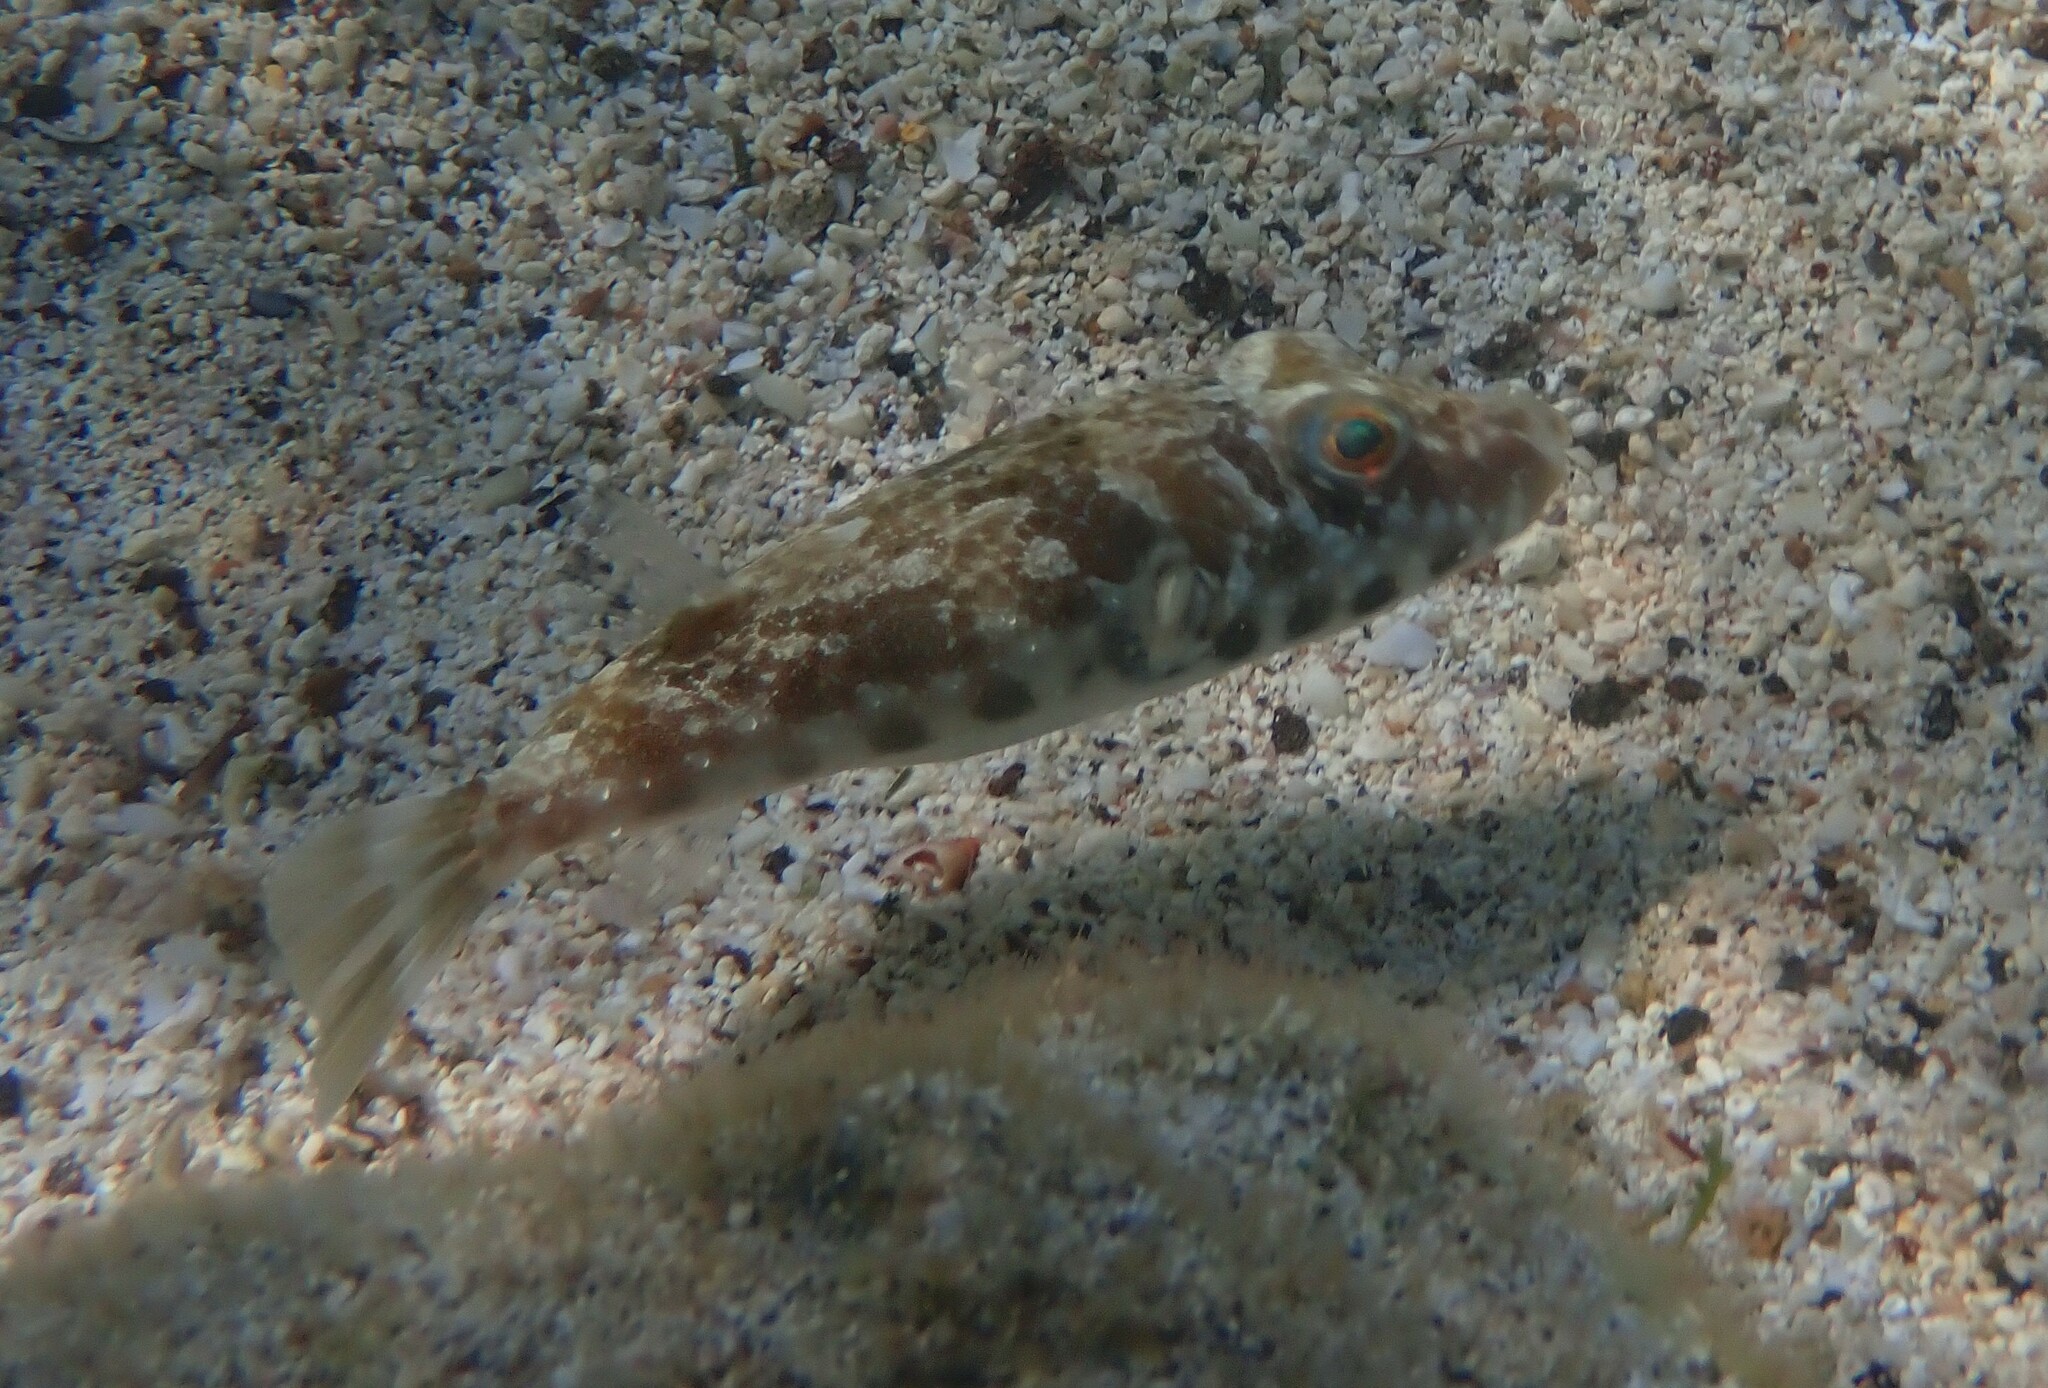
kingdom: Animalia
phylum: Chordata
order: Tetraodontiformes
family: Tetraodontidae
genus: Sphoeroides
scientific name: Sphoeroides marmoratus
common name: Guinean puffer
